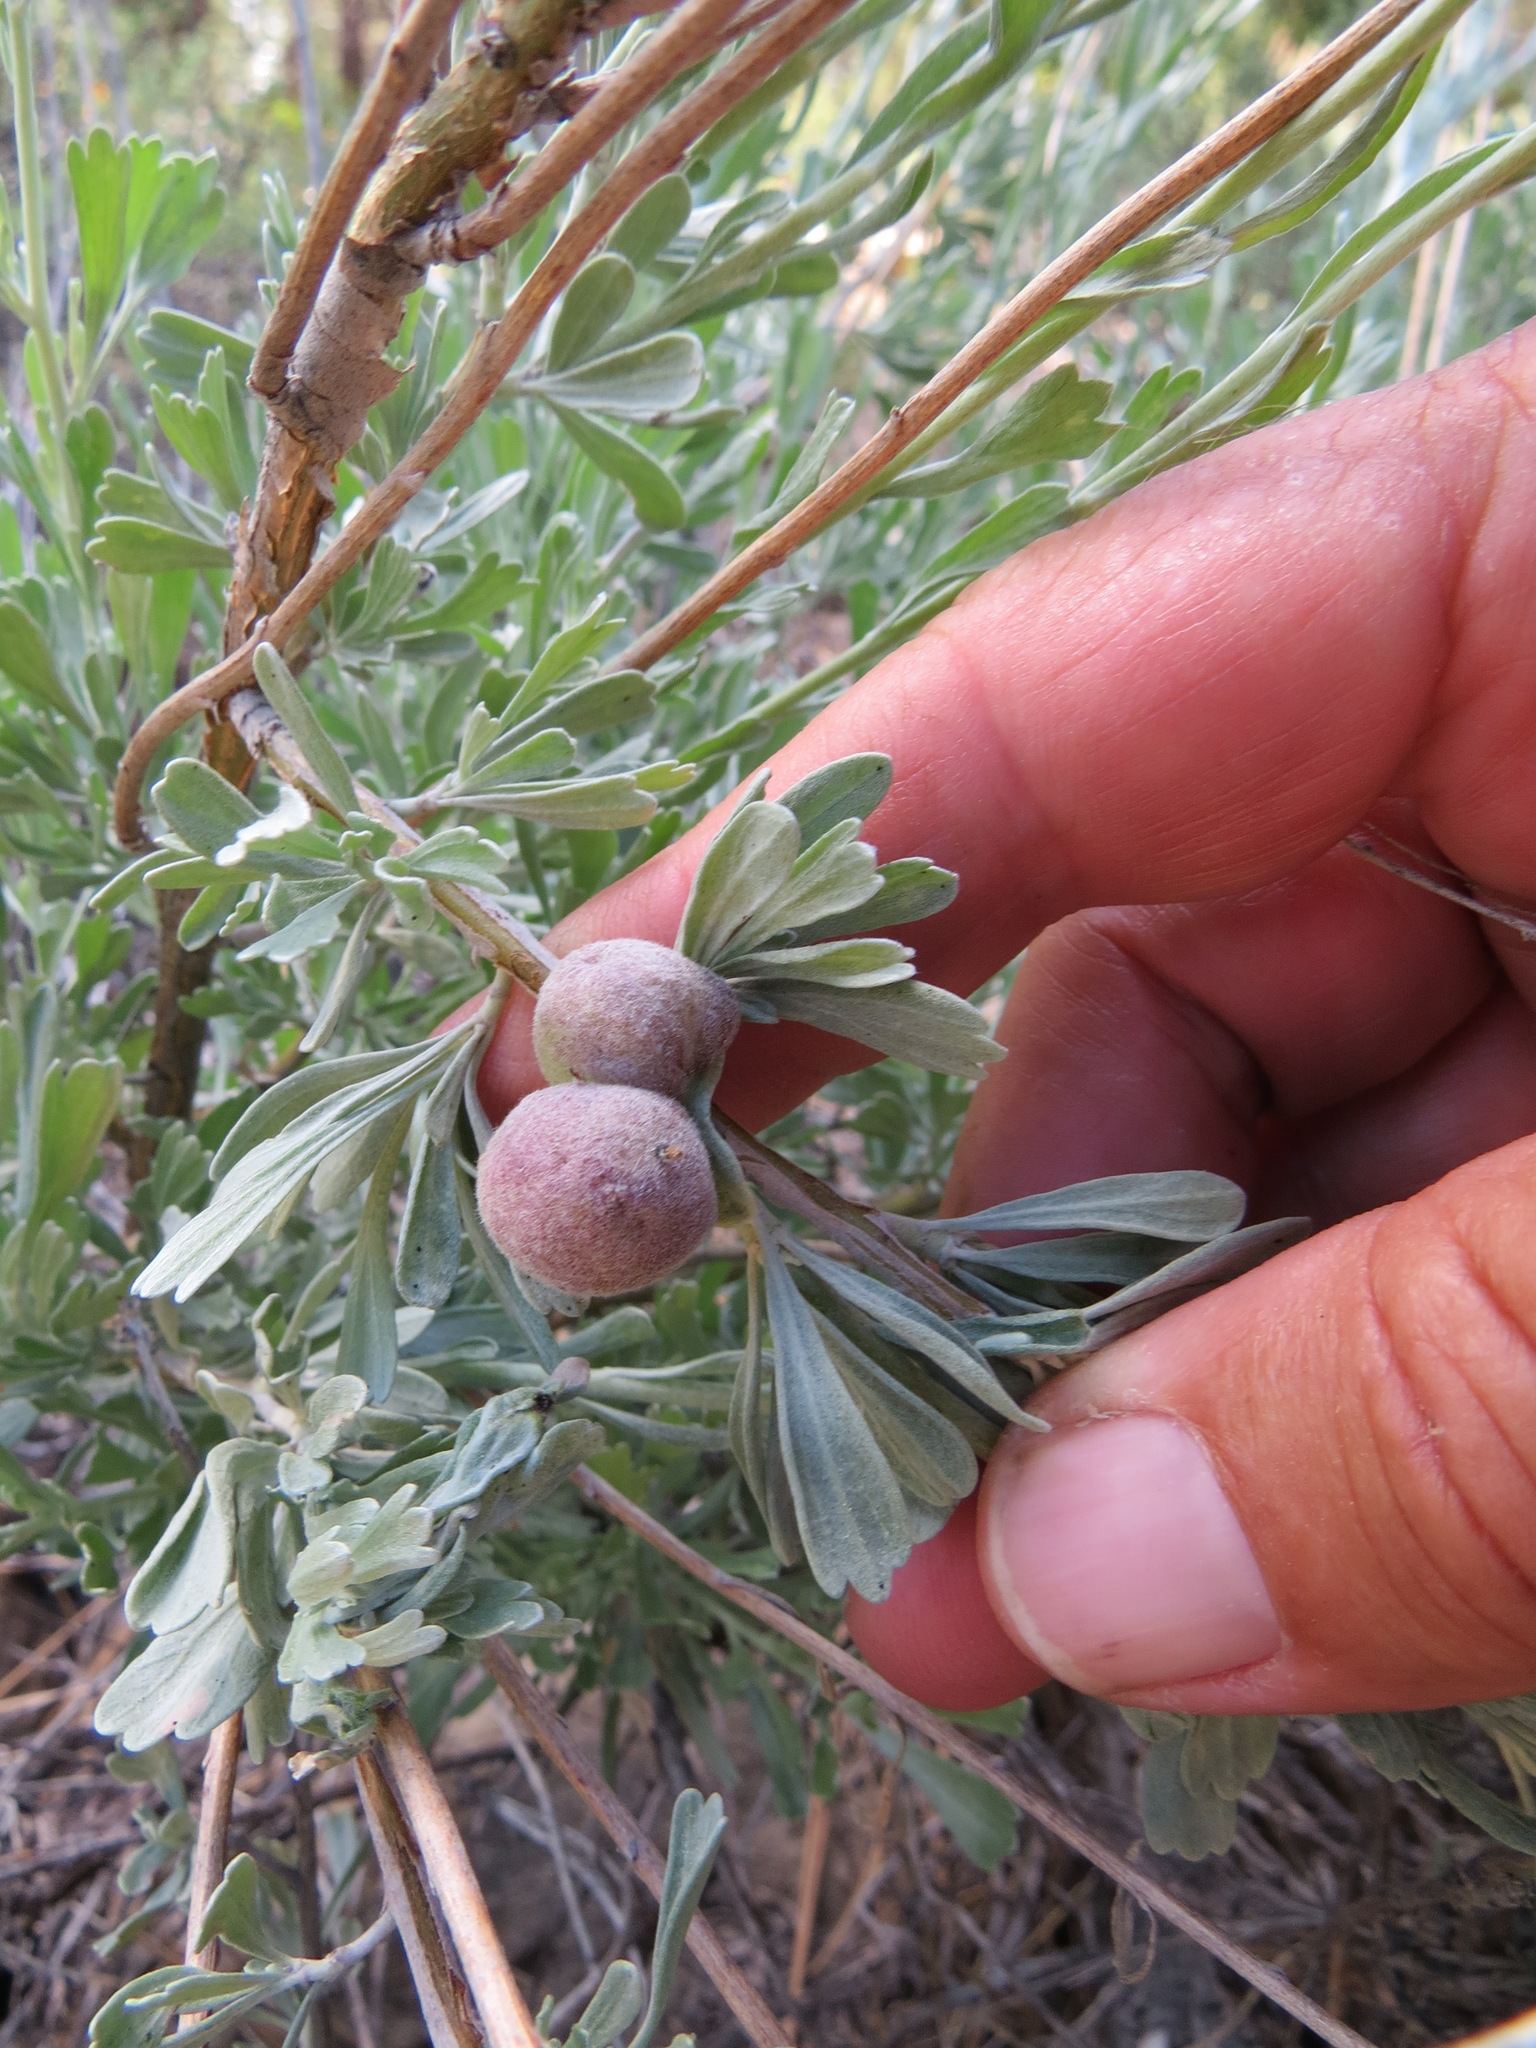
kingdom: Animalia
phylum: Arthropoda
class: Insecta
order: Diptera
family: Cecidomyiidae
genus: Rhopalomyia
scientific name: Rhopalomyia pomum
